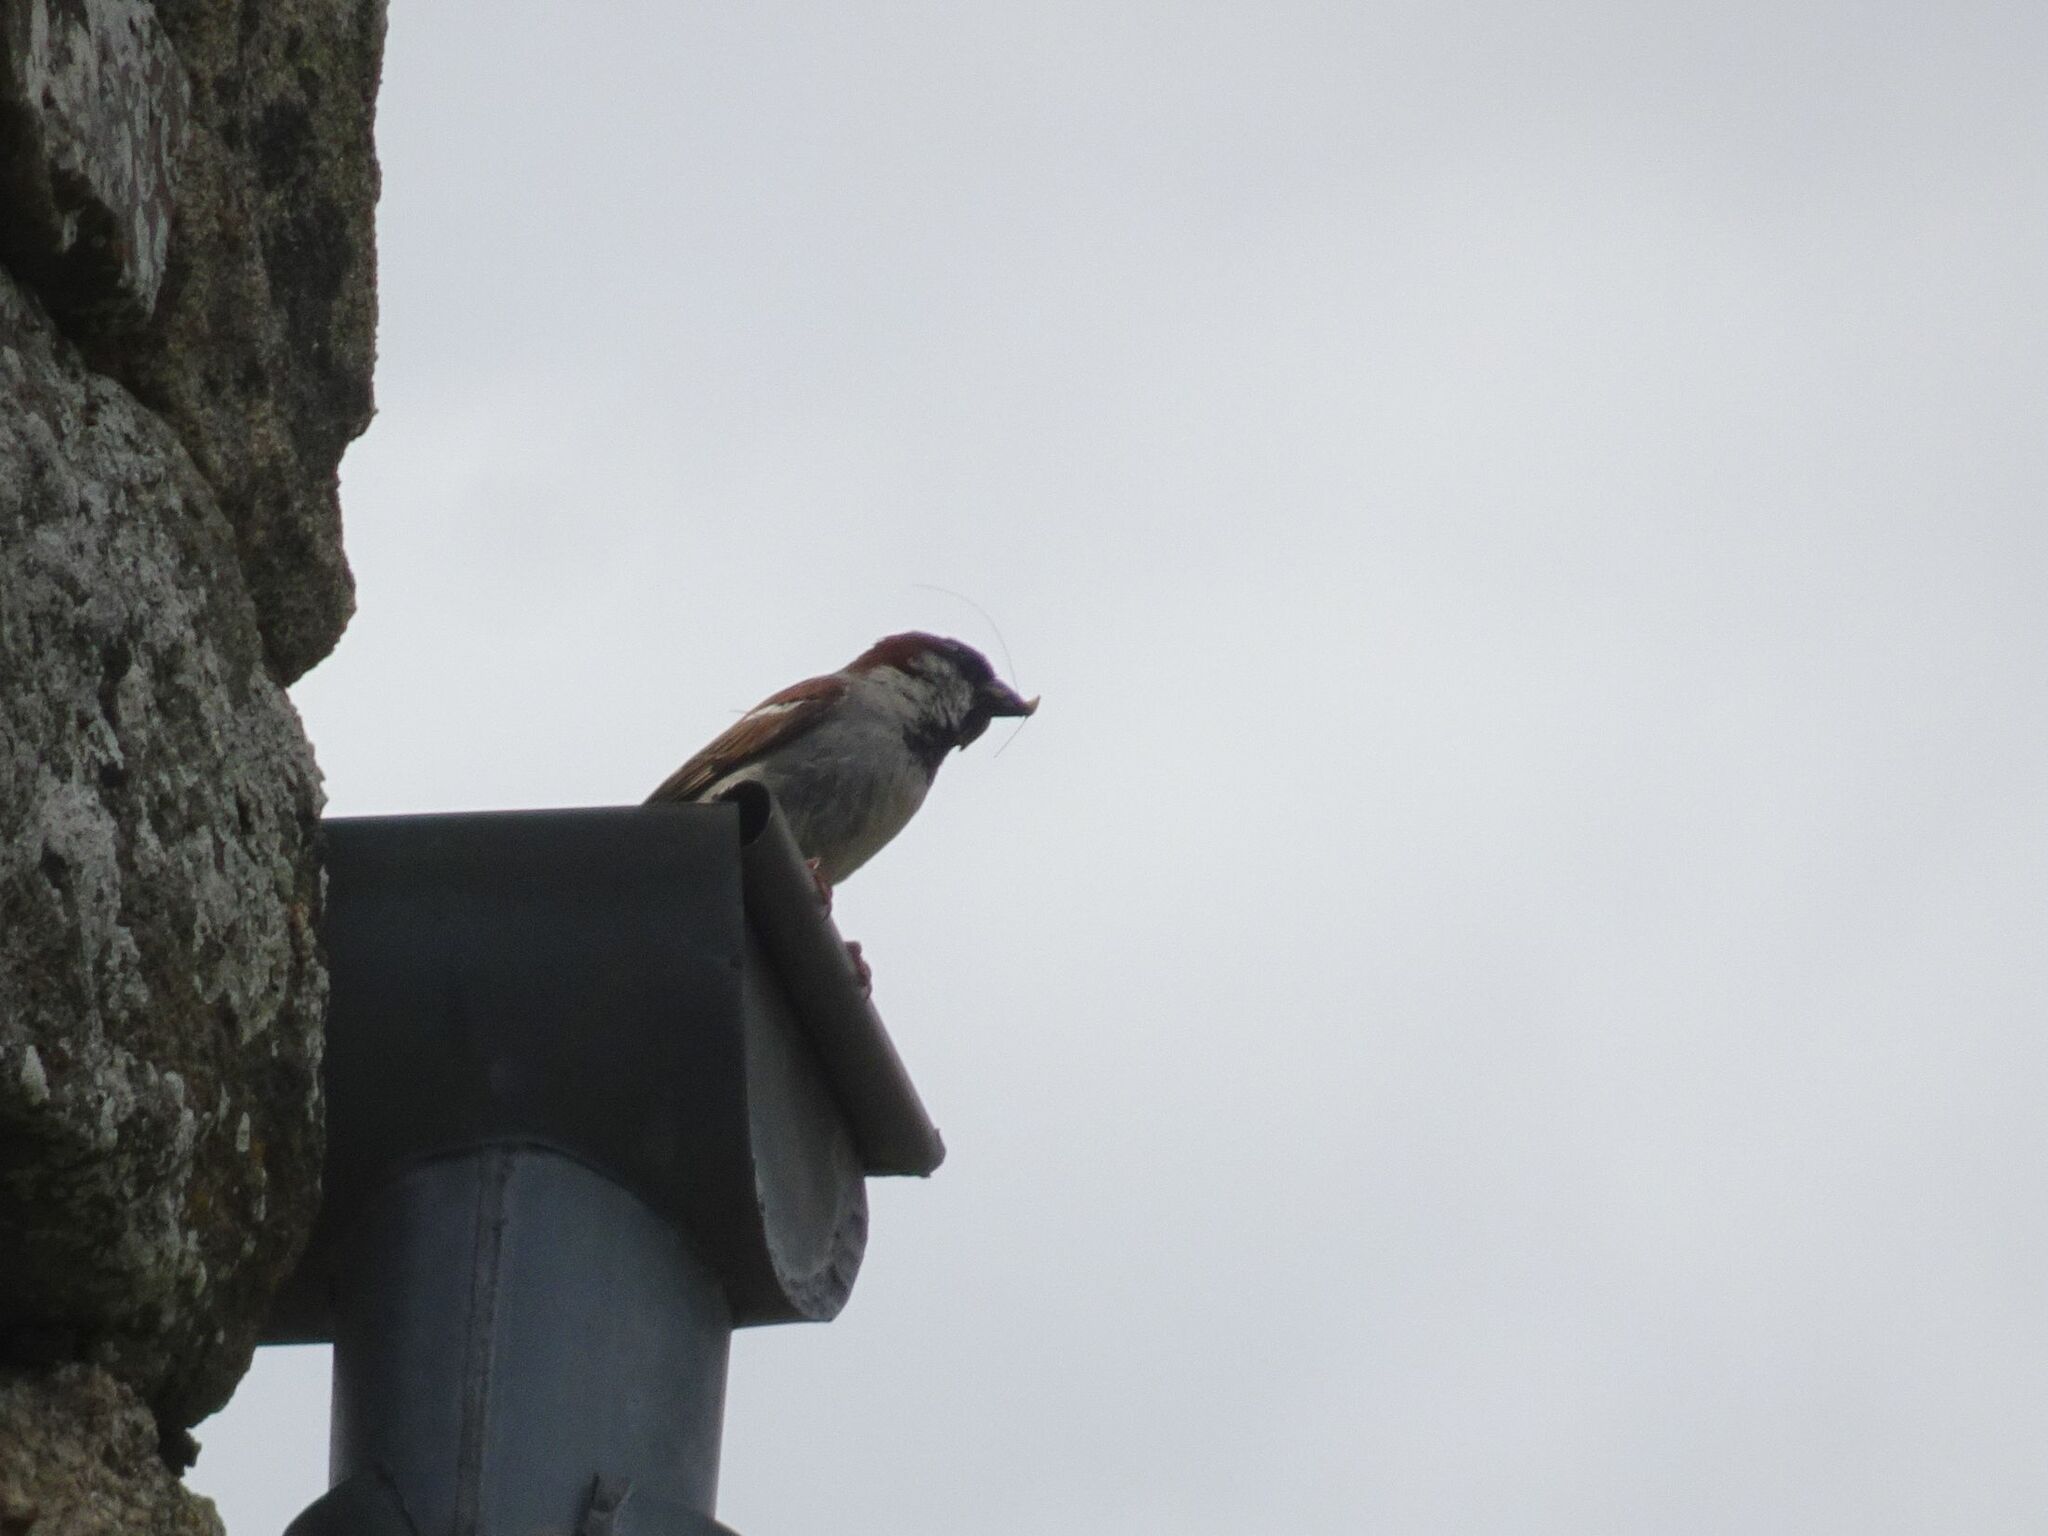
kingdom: Animalia
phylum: Chordata
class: Aves
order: Passeriformes
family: Passeridae
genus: Passer
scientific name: Passer domesticus
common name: House sparrow
